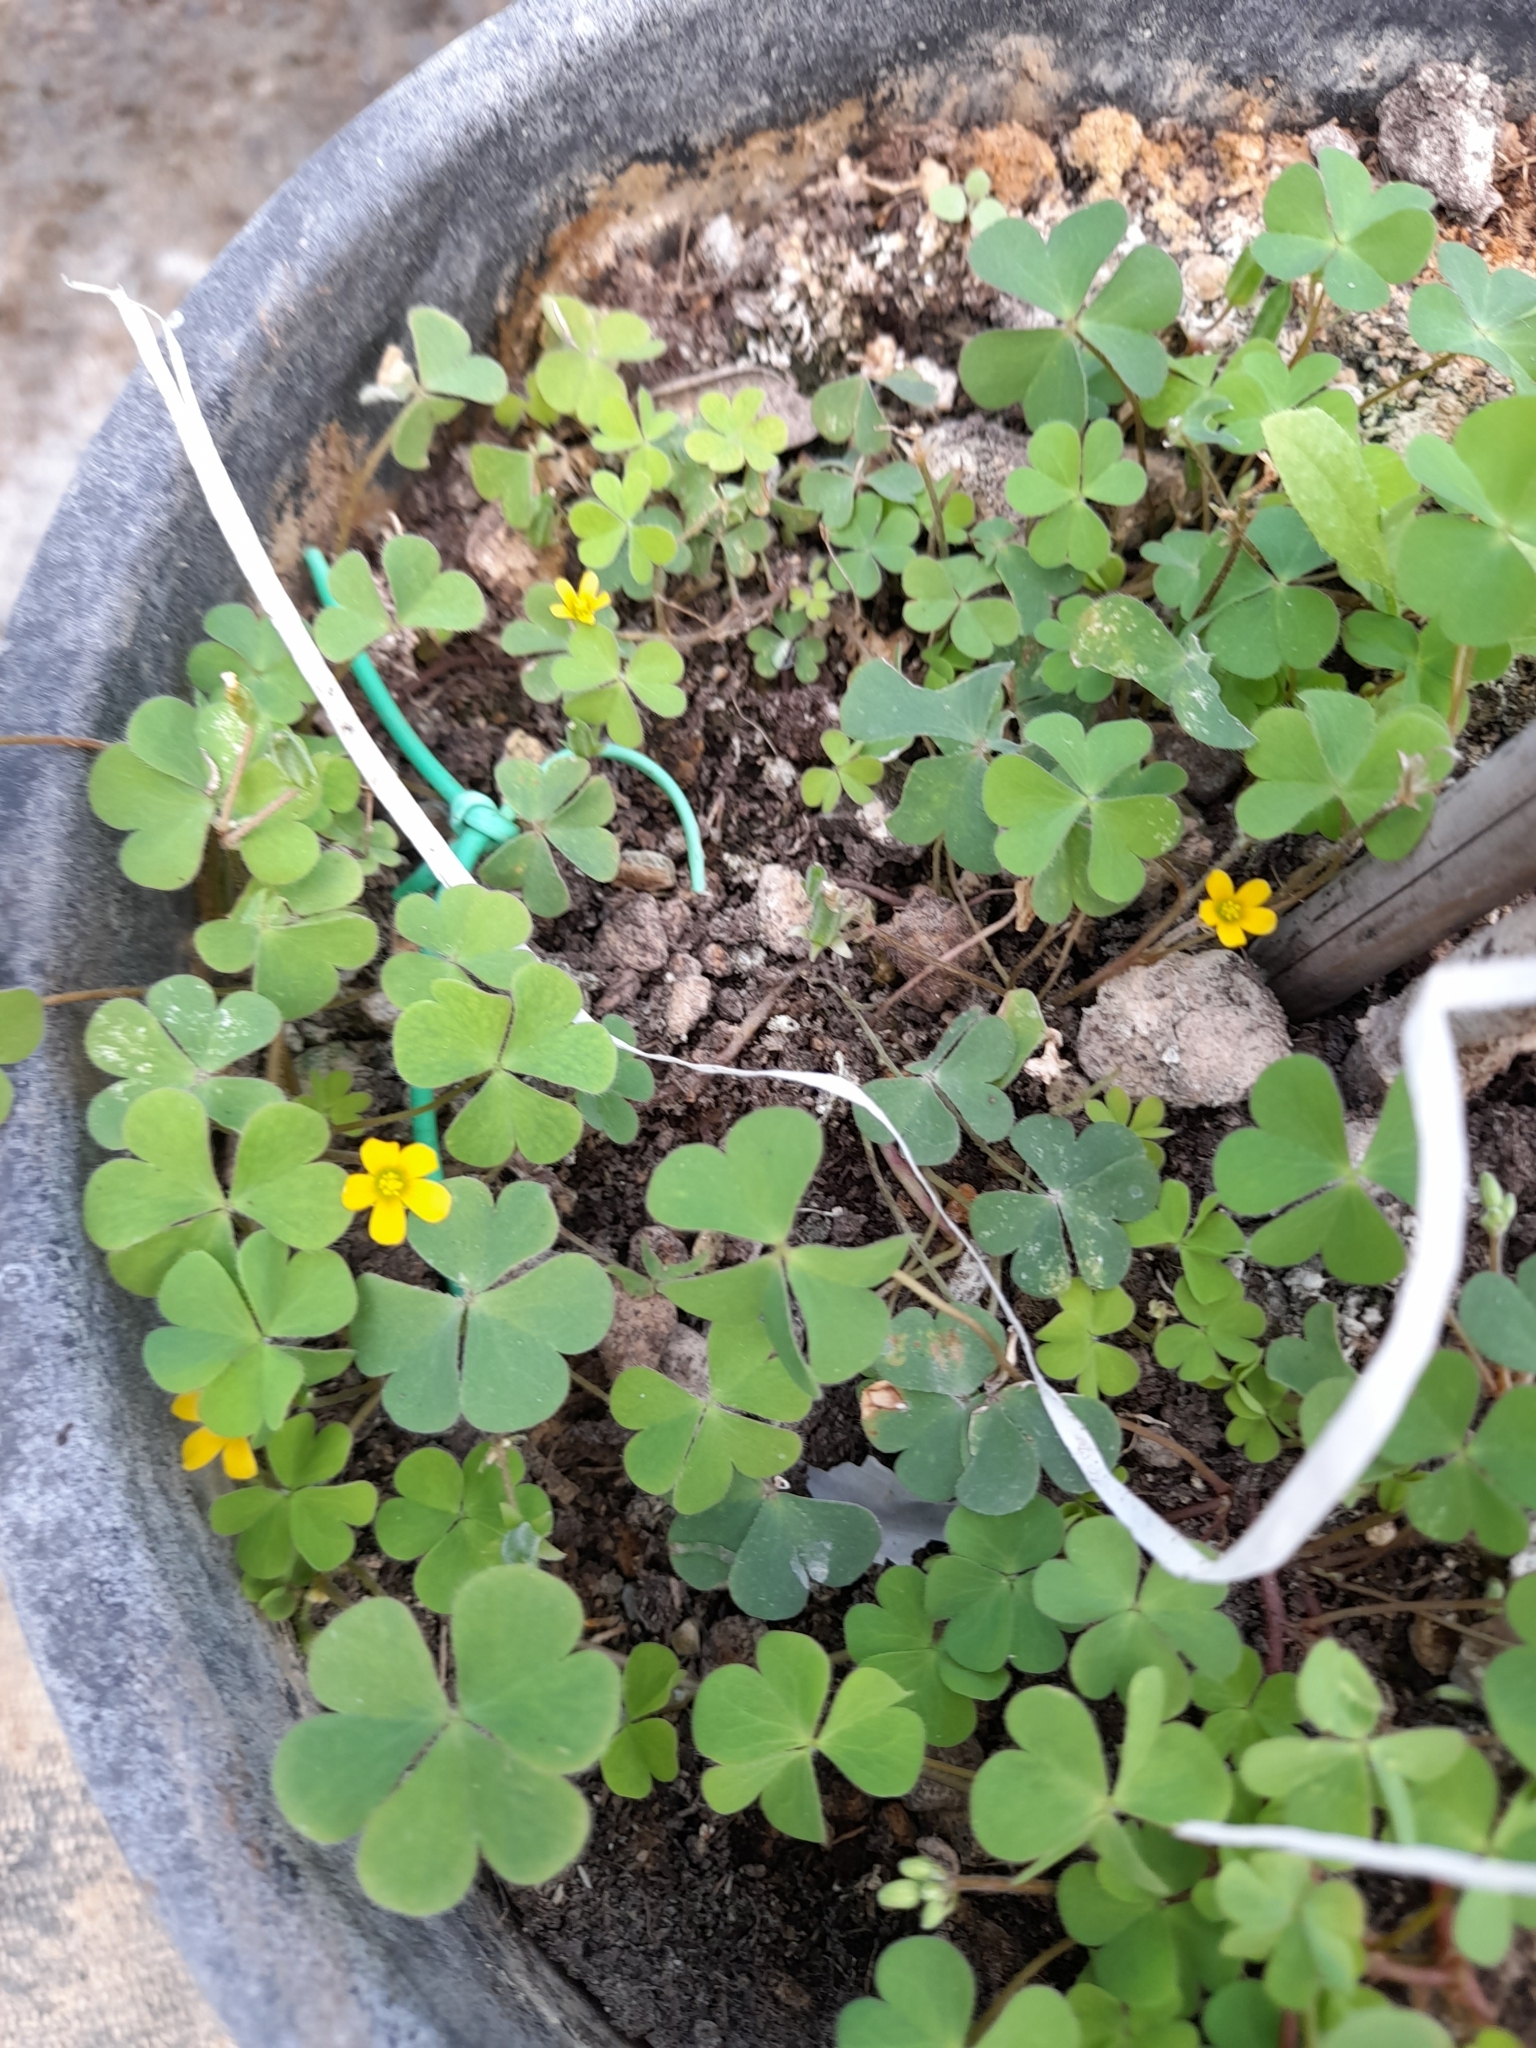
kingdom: Plantae
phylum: Tracheophyta
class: Magnoliopsida
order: Oxalidales
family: Oxalidaceae
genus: Oxalis
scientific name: Oxalis corniculata
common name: Procumbent yellow-sorrel
